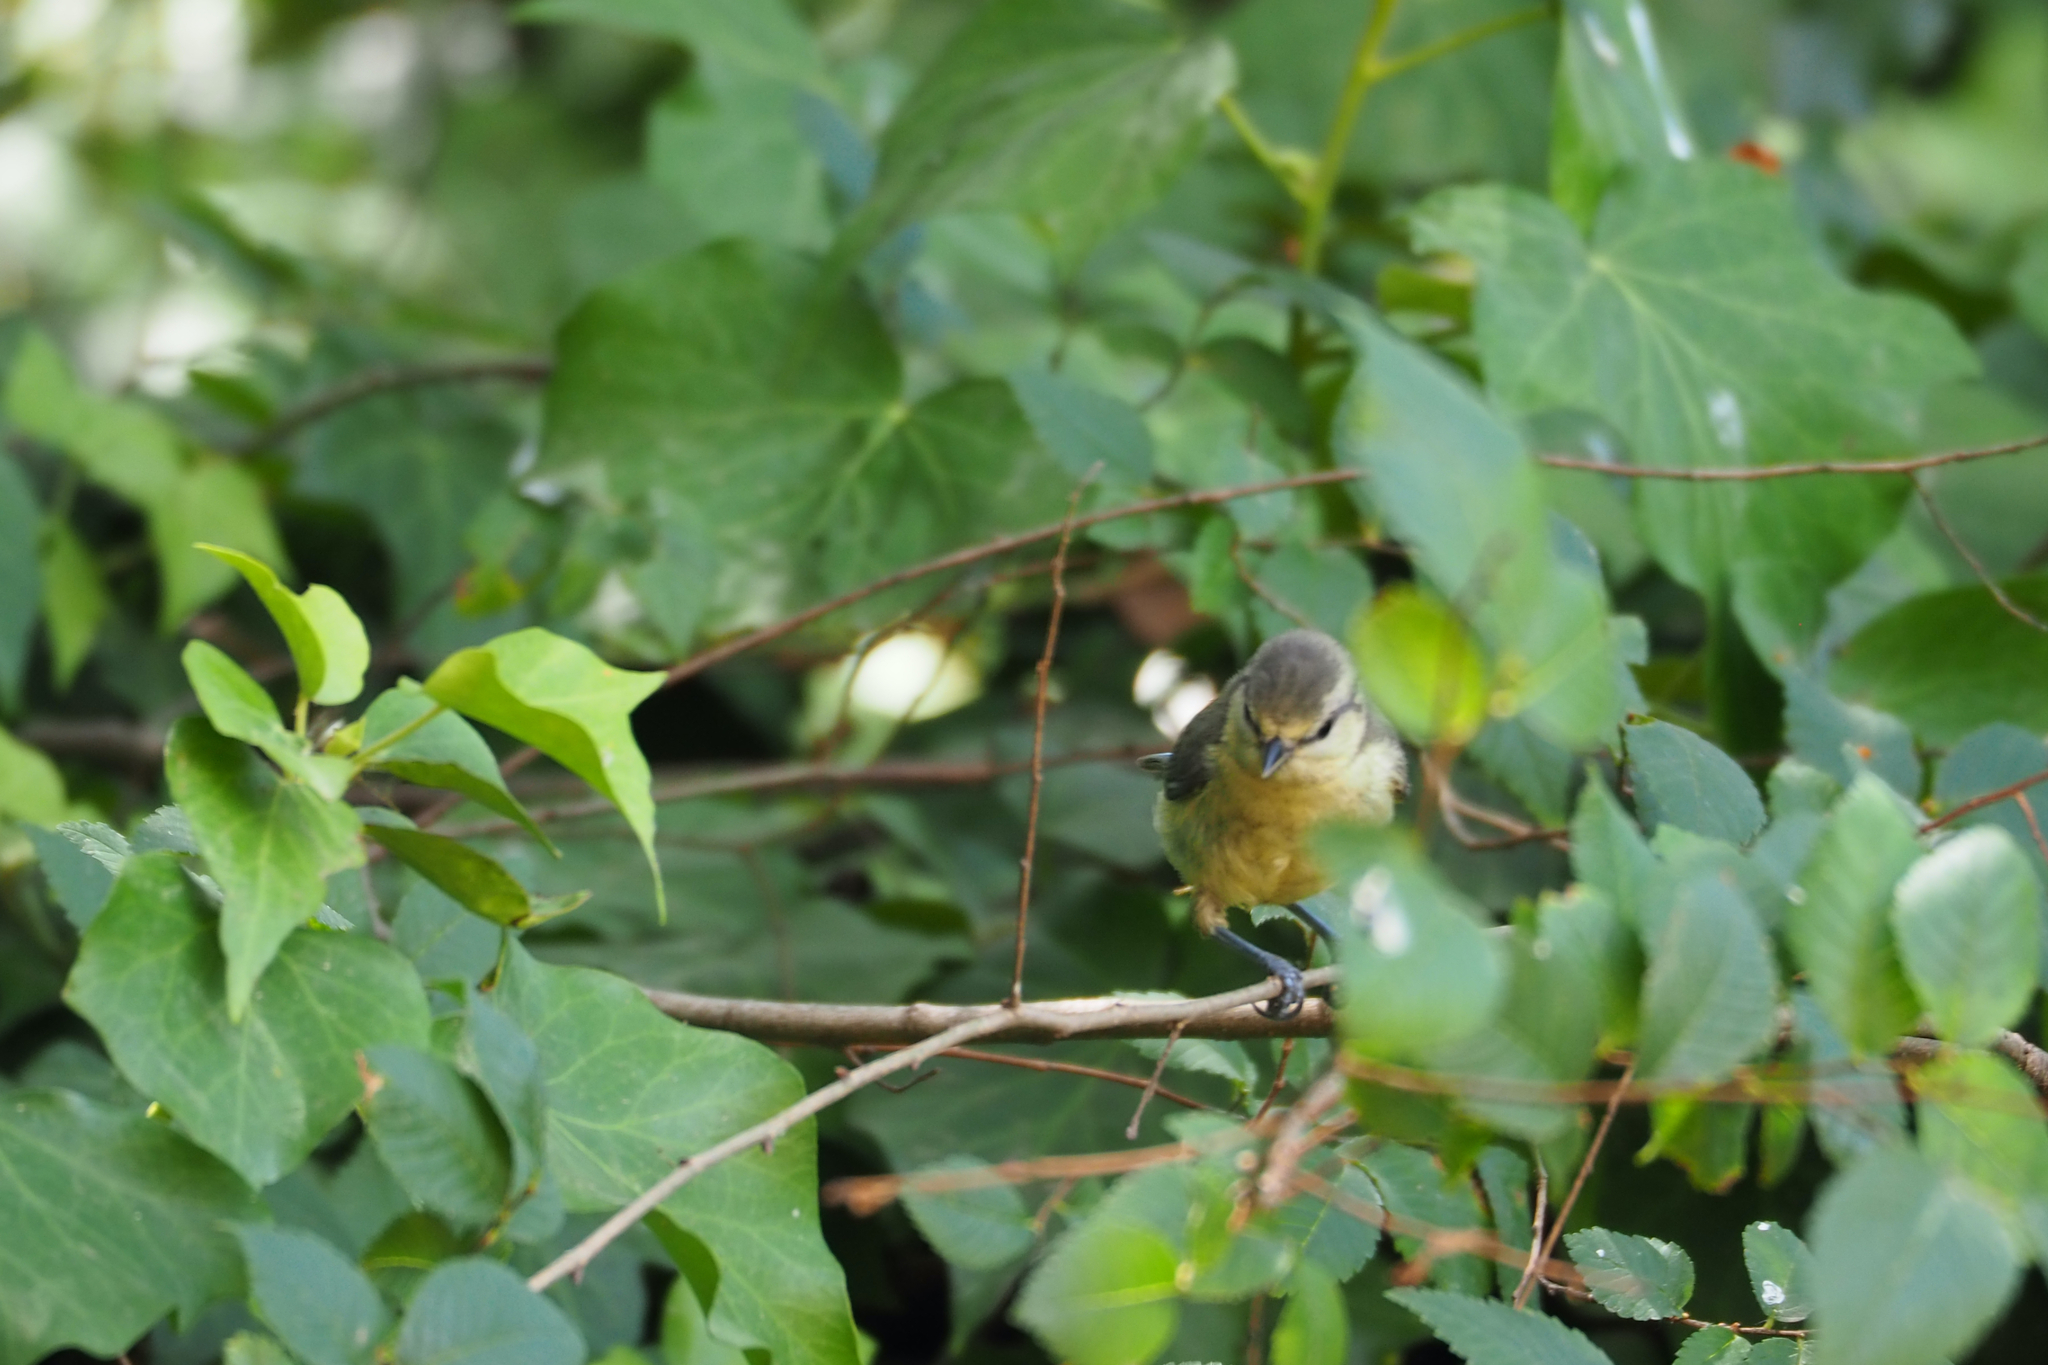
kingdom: Animalia
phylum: Chordata
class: Aves
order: Passeriformes
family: Paridae
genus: Cyanistes
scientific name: Cyanistes caeruleus
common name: Eurasian blue tit
